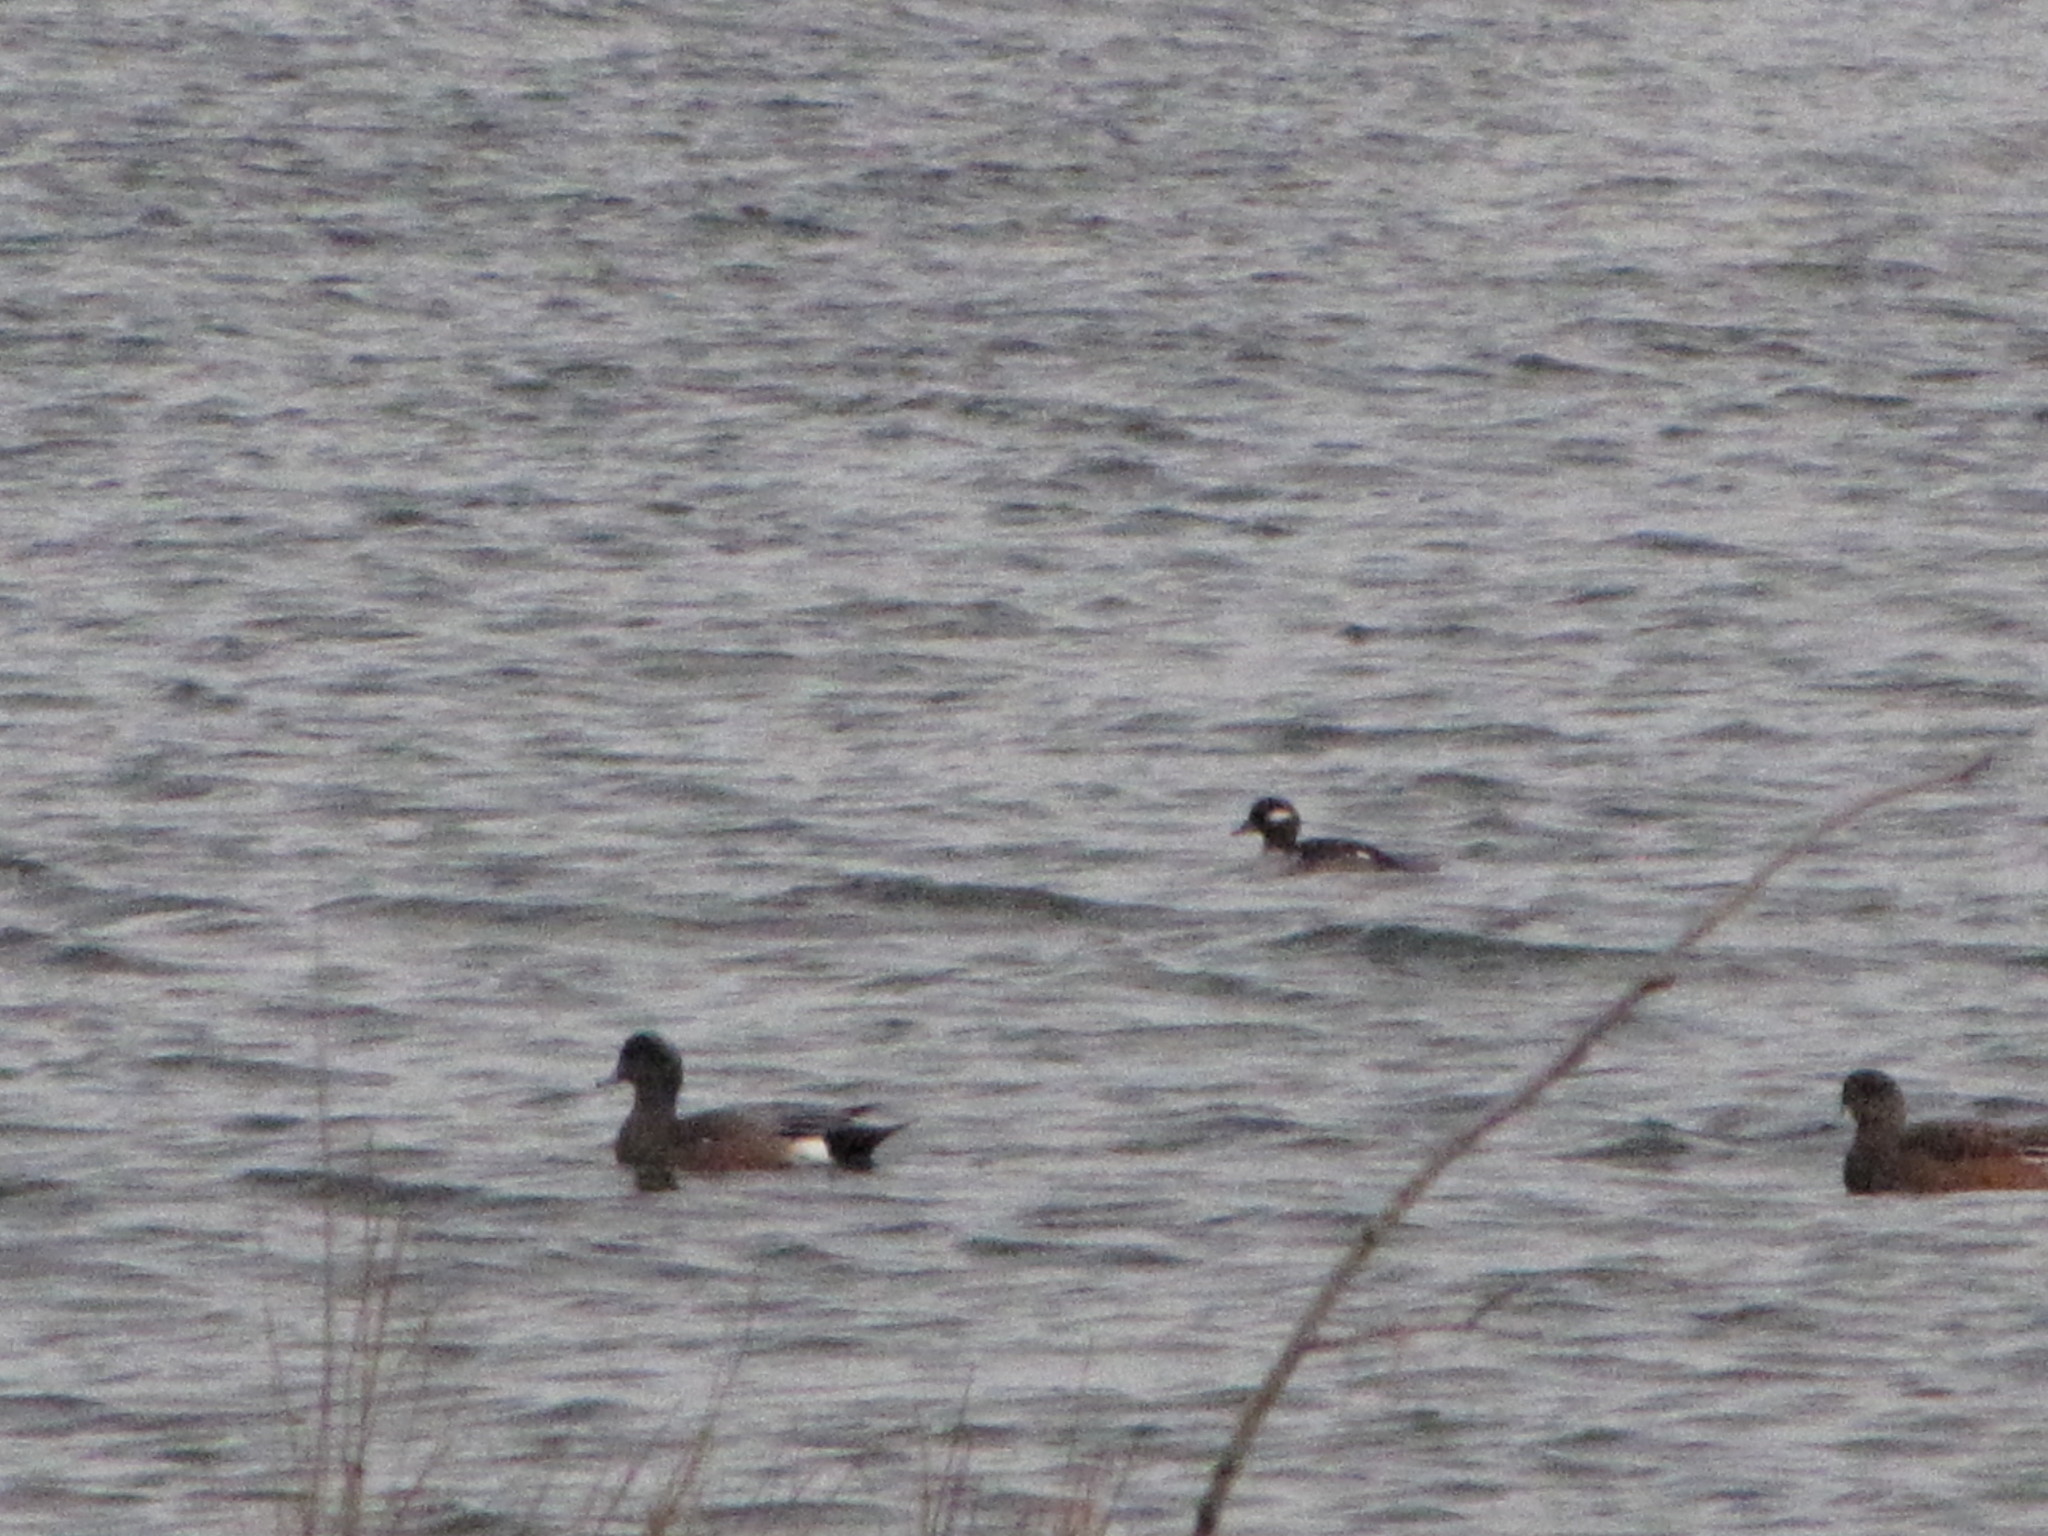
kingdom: Animalia
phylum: Chordata
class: Aves
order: Anseriformes
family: Anatidae
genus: Bucephala
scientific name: Bucephala albeola
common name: Bufflehead
